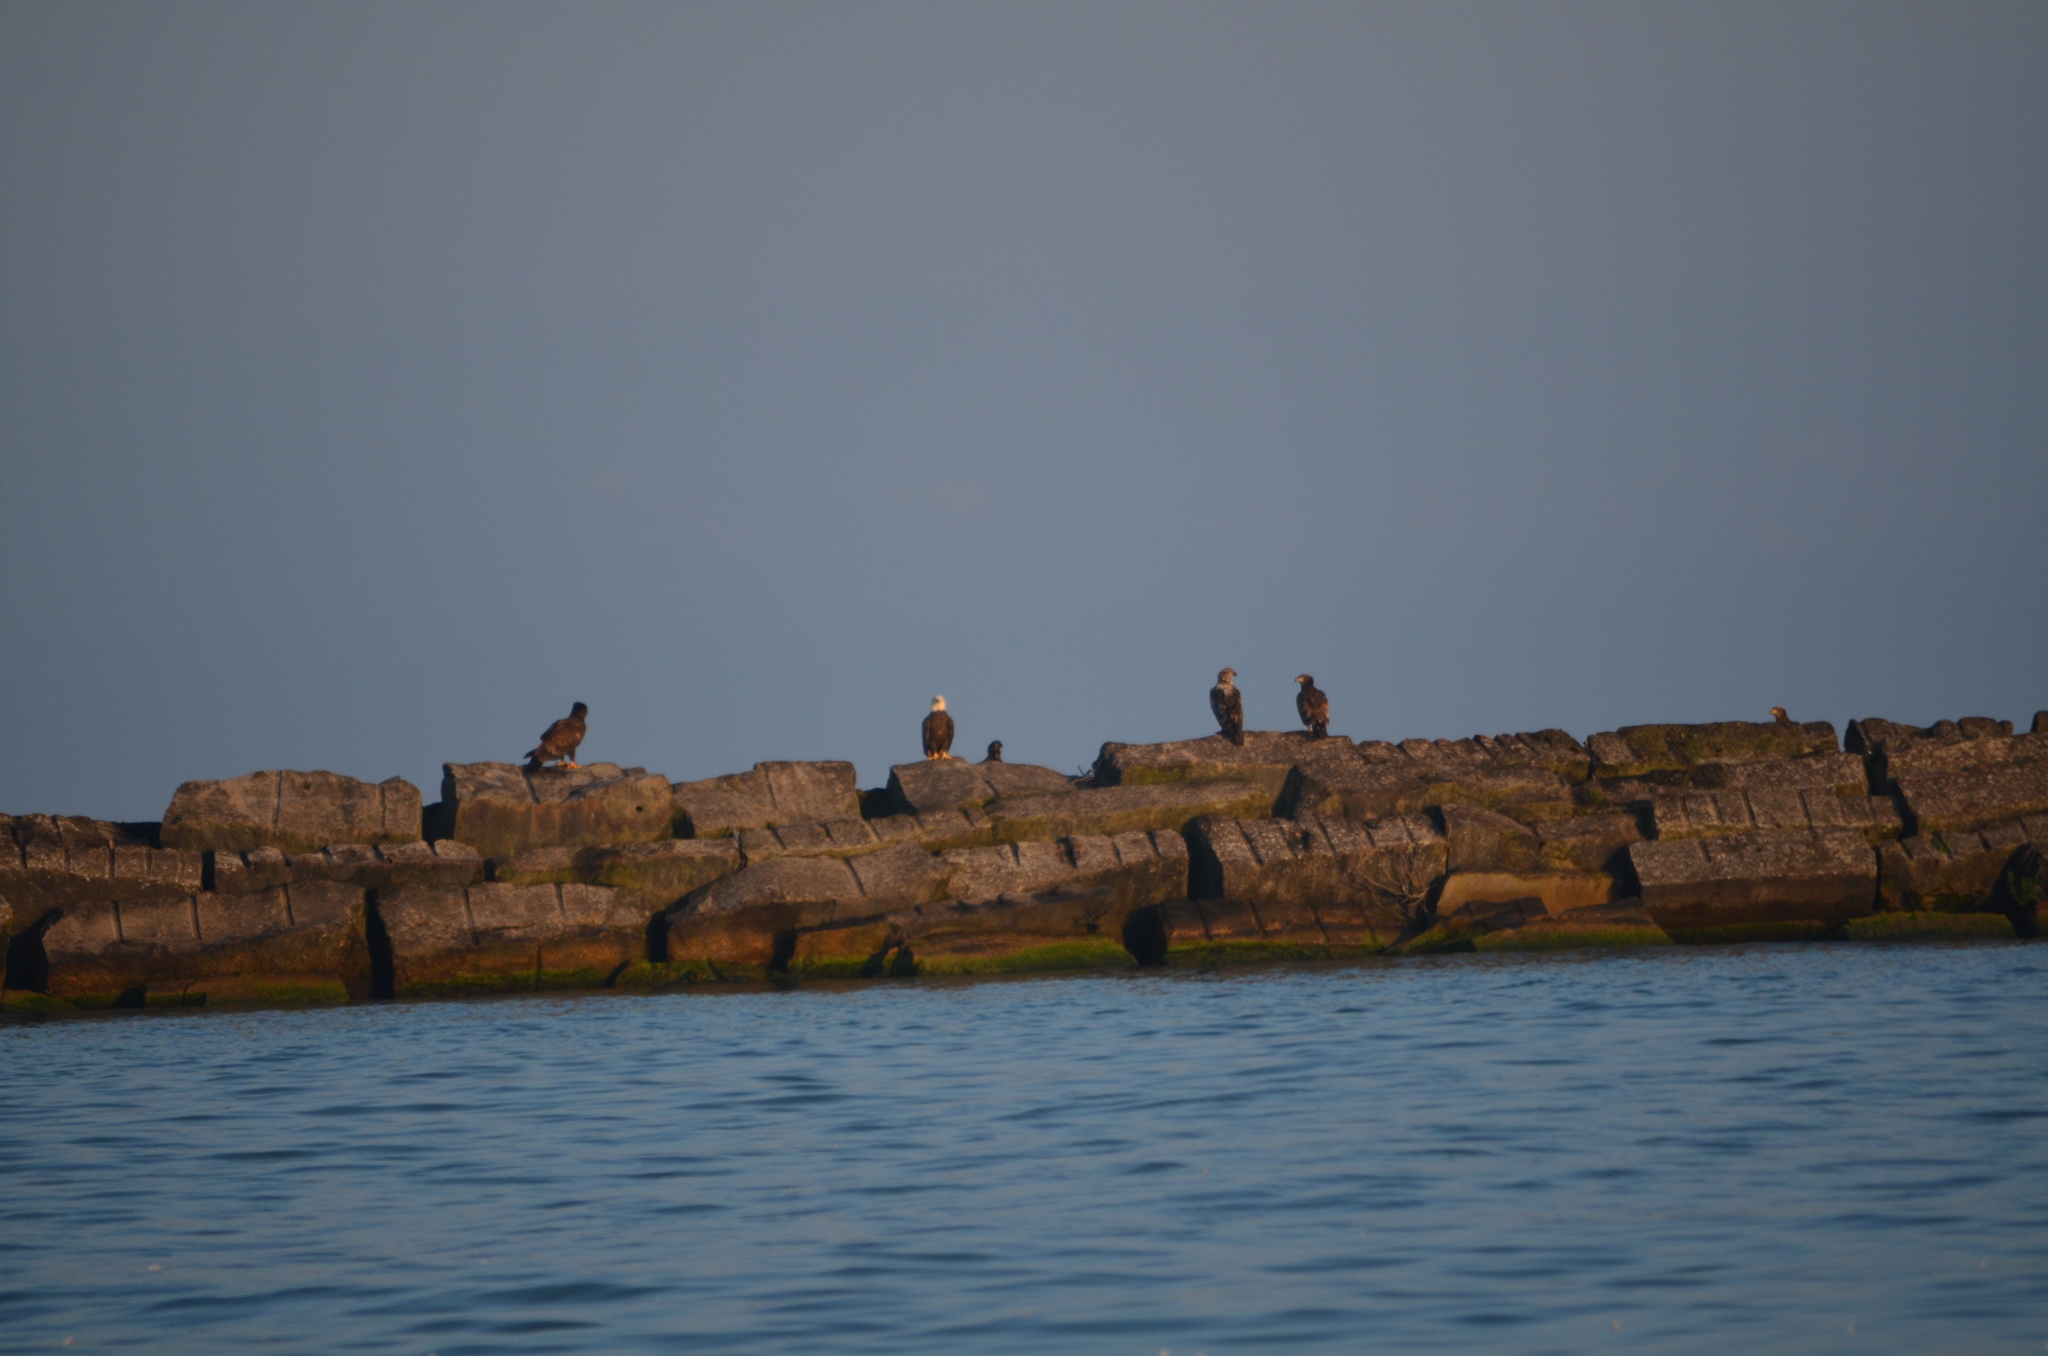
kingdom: Animalia
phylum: Chordata
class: Aves
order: Accipitriformes
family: Accipitridae
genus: Haliaeetus
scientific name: Haliaeetus leucocephalus
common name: Bald eagle
